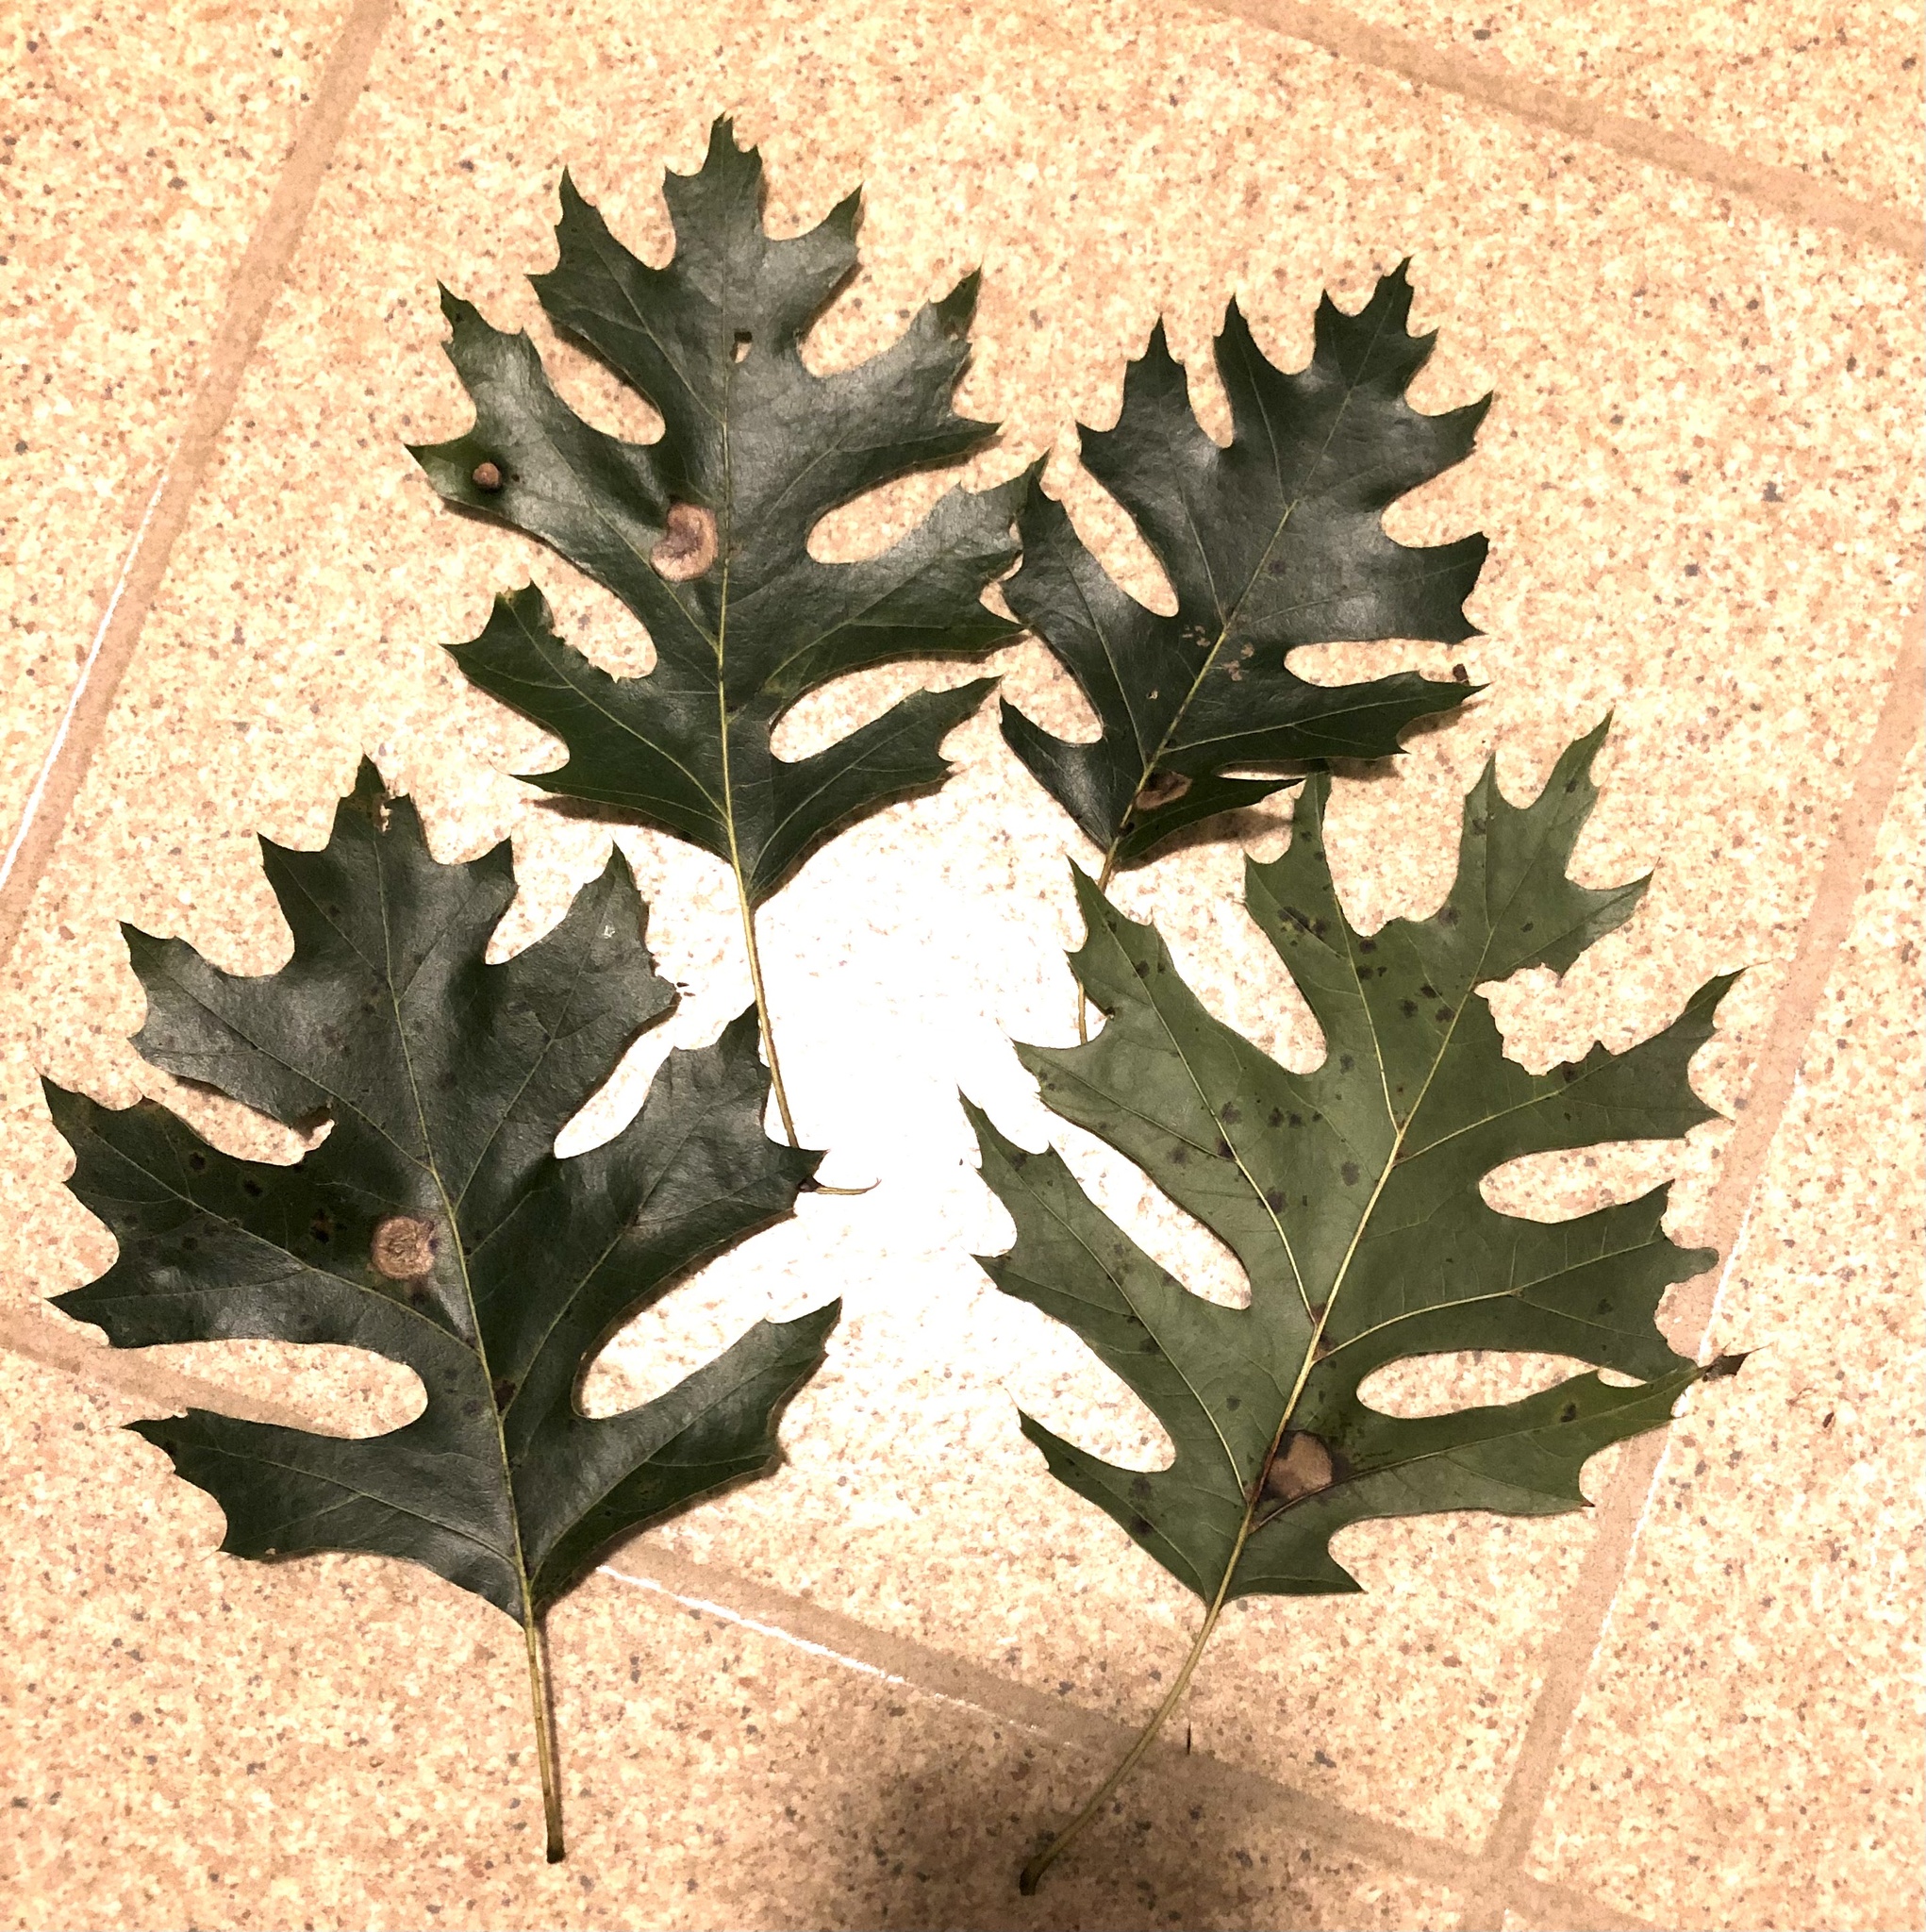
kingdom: Plantae
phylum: Tracheophyta
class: Magnoliopsida
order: Fagales
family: Fagaceae
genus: Quercus
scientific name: Quercus shumardii
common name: Shumard oak
